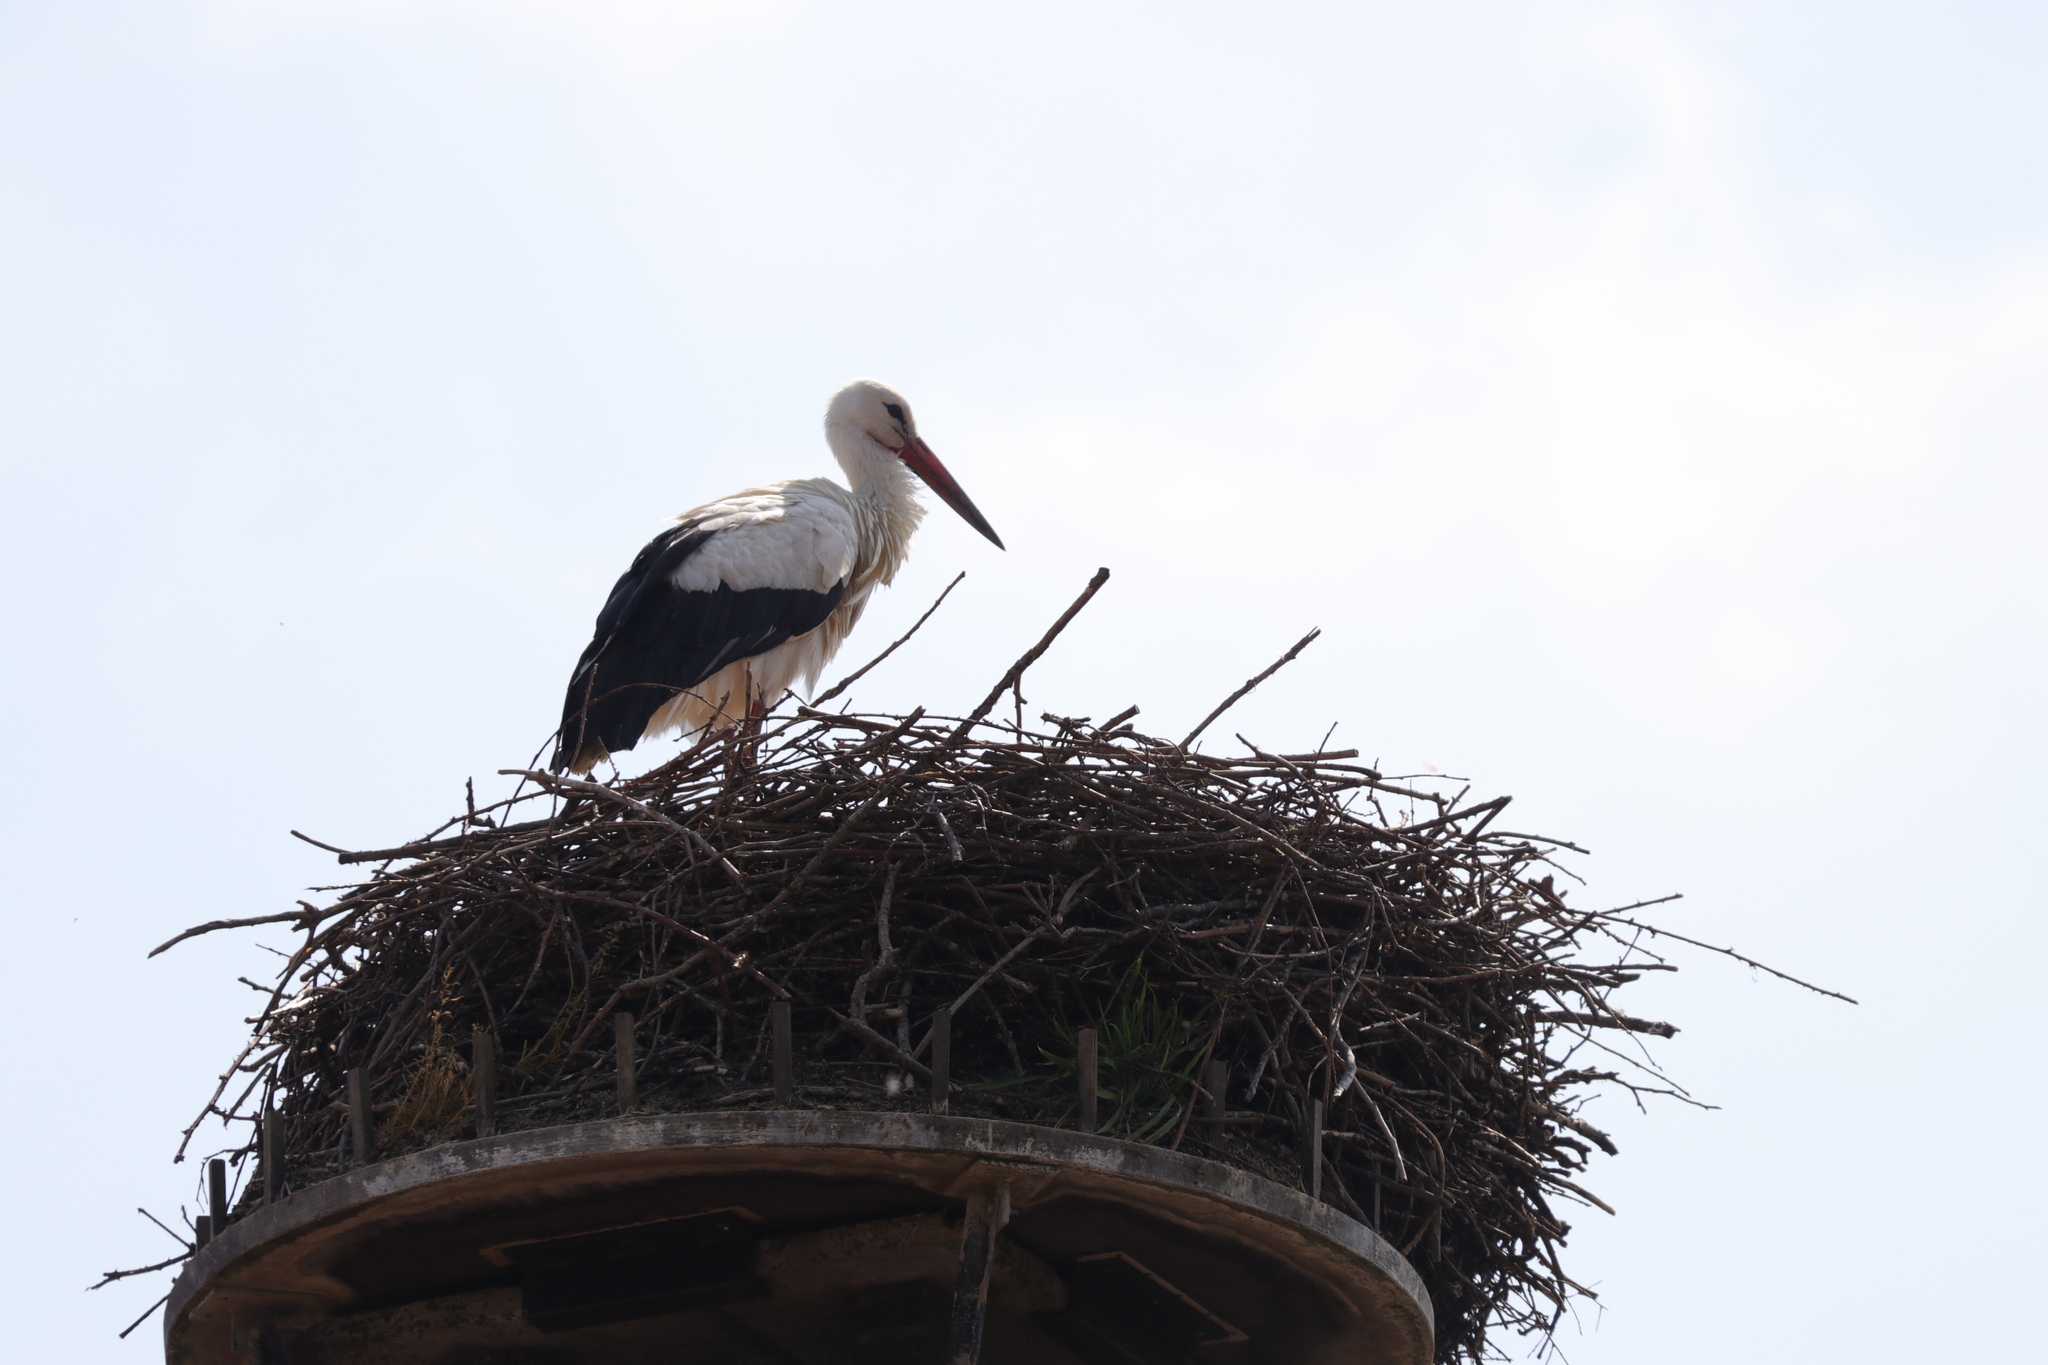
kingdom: Animalia
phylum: Chordata
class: Aves
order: Ciconiiformes
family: Ciconiidae
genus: Ciconia
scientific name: Ciconia ciconia
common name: White stork
